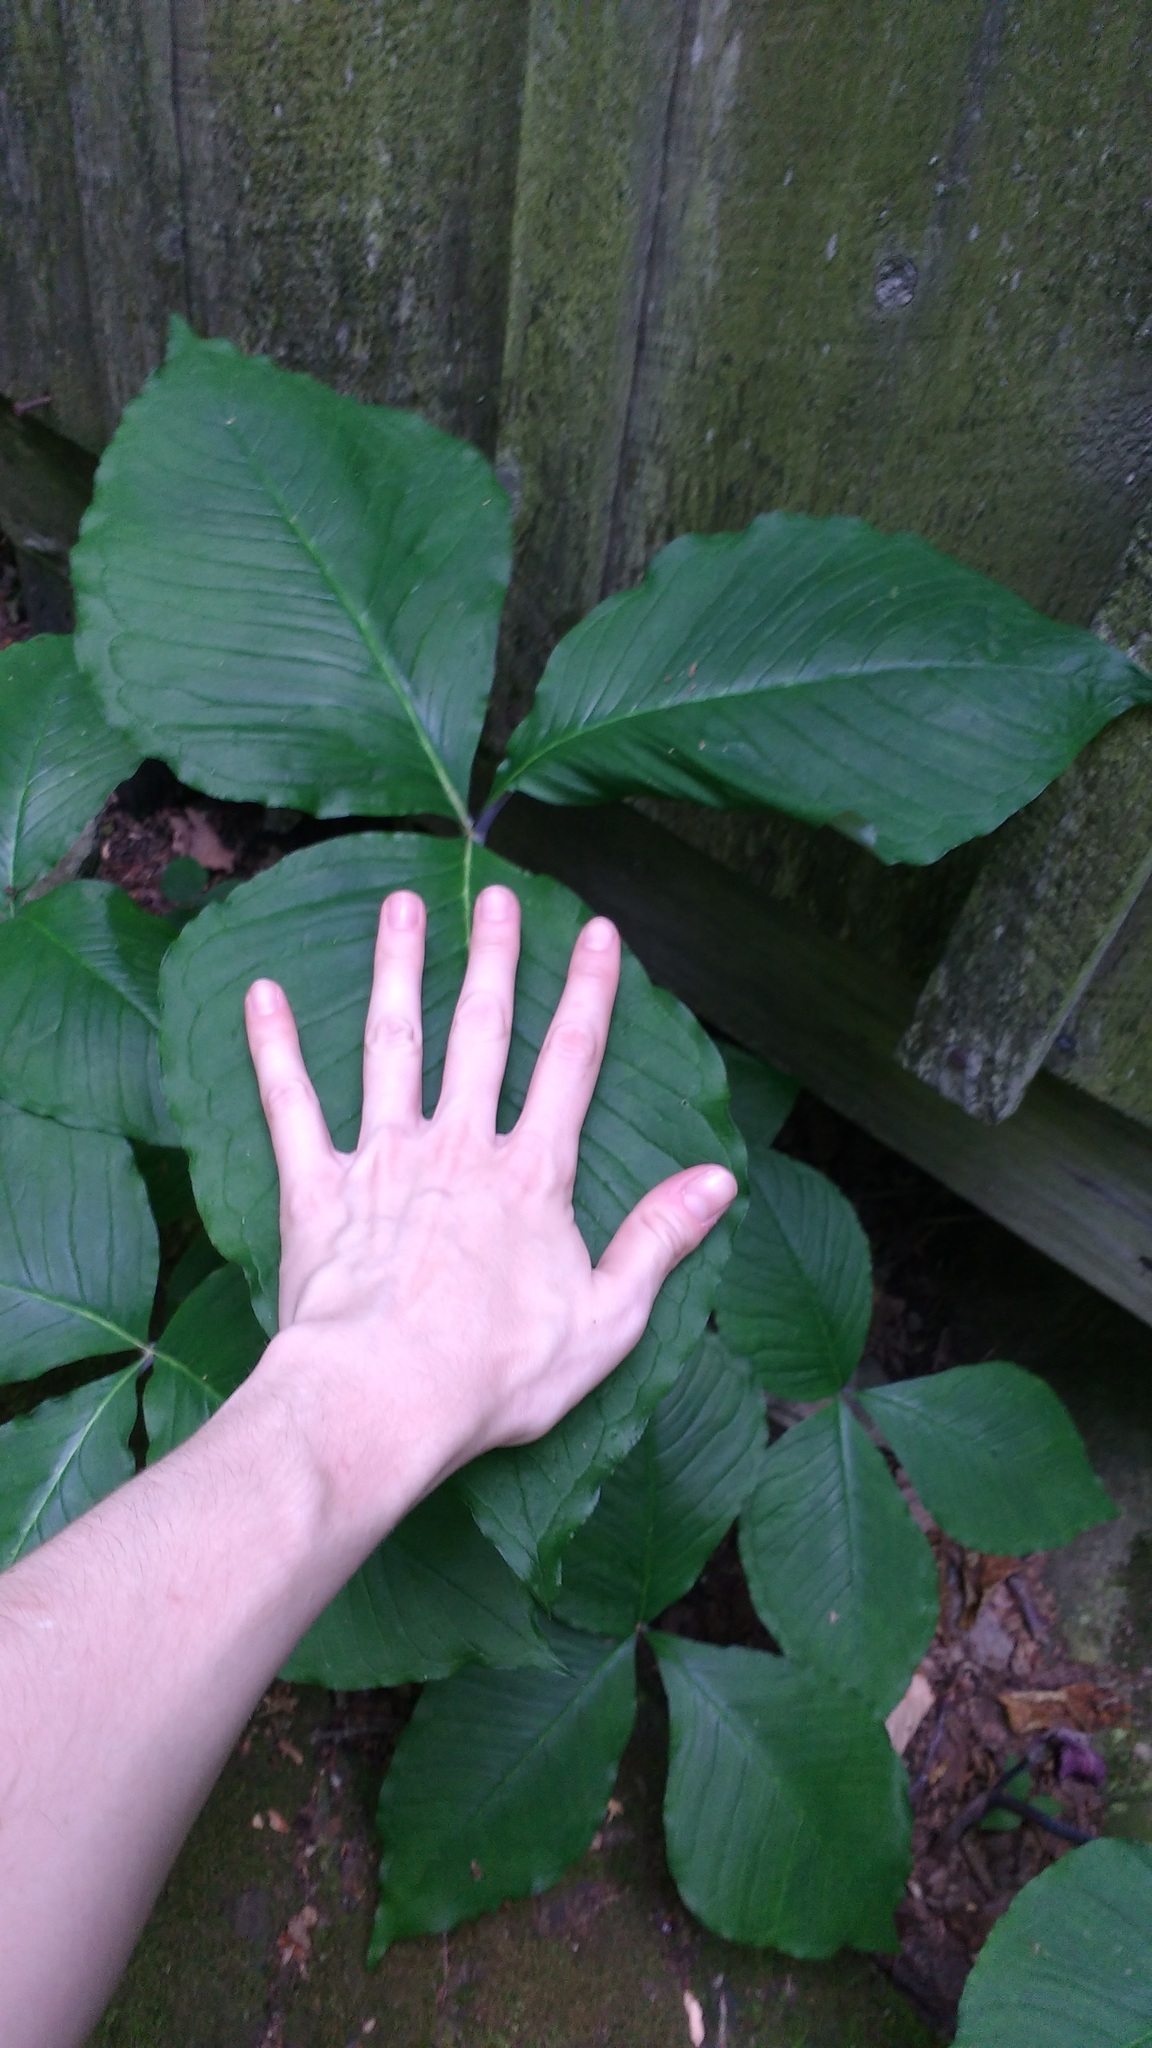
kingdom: Plantae
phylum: Tracheophyta
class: Liliopsida
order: Alismatales
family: Araceae
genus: Arisaema
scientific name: Arisaema triphyllum
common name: Jack-in-the-pulpit
